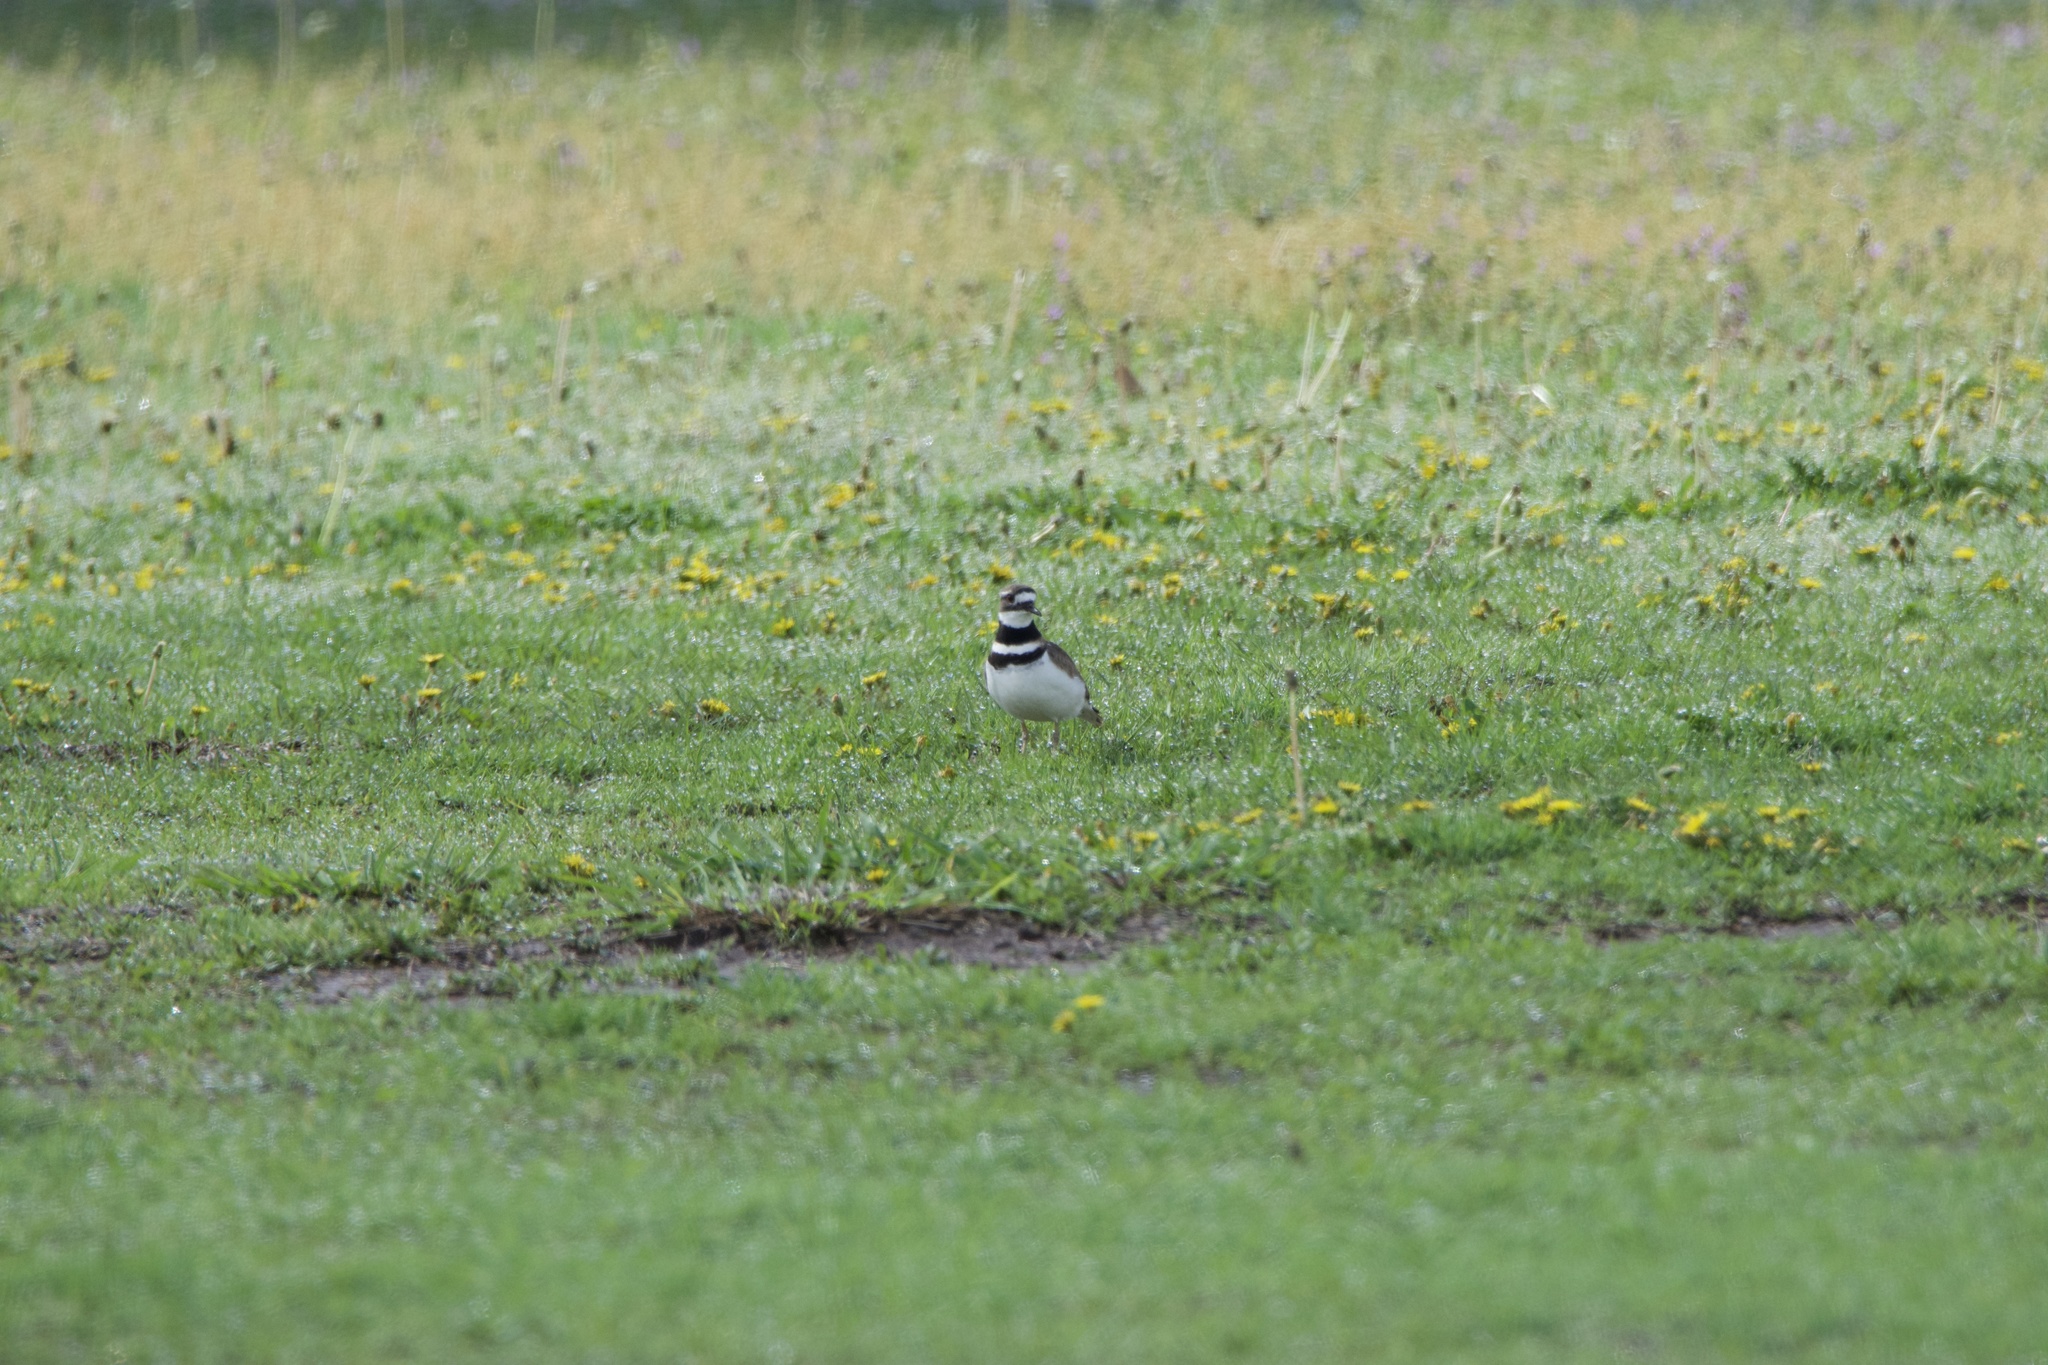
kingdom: Animalia
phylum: Chordata
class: Aves
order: Charadriiformes
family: Charadriidae
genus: Charadrius
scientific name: Charadrius vociferus
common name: Killdeer
